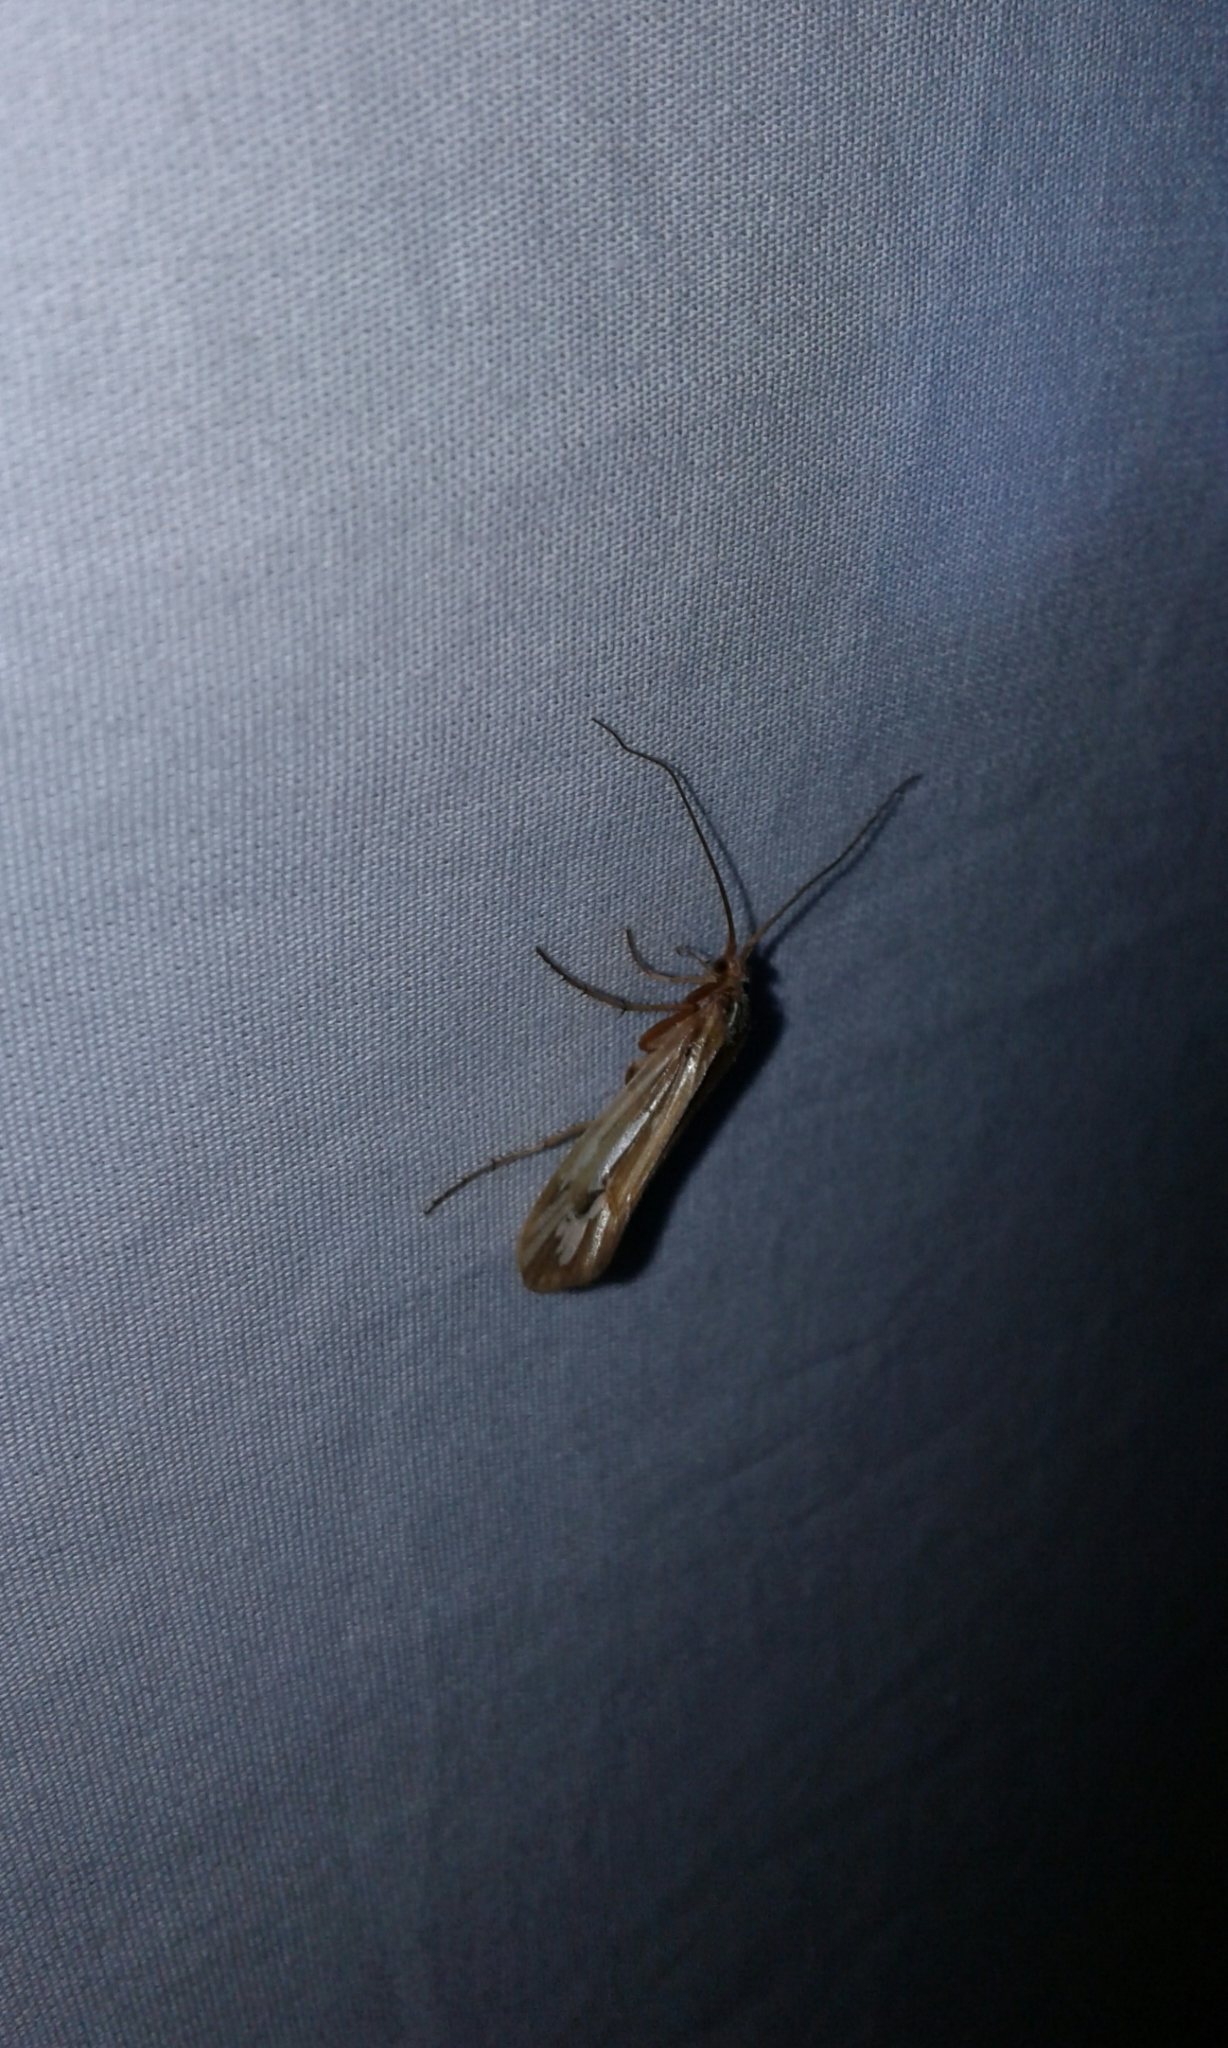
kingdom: Animalia
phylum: Arthropoda
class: Insecta
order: Trichoptera
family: Limnephilidae
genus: Limnephilus
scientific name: Limnephilus ornatus
